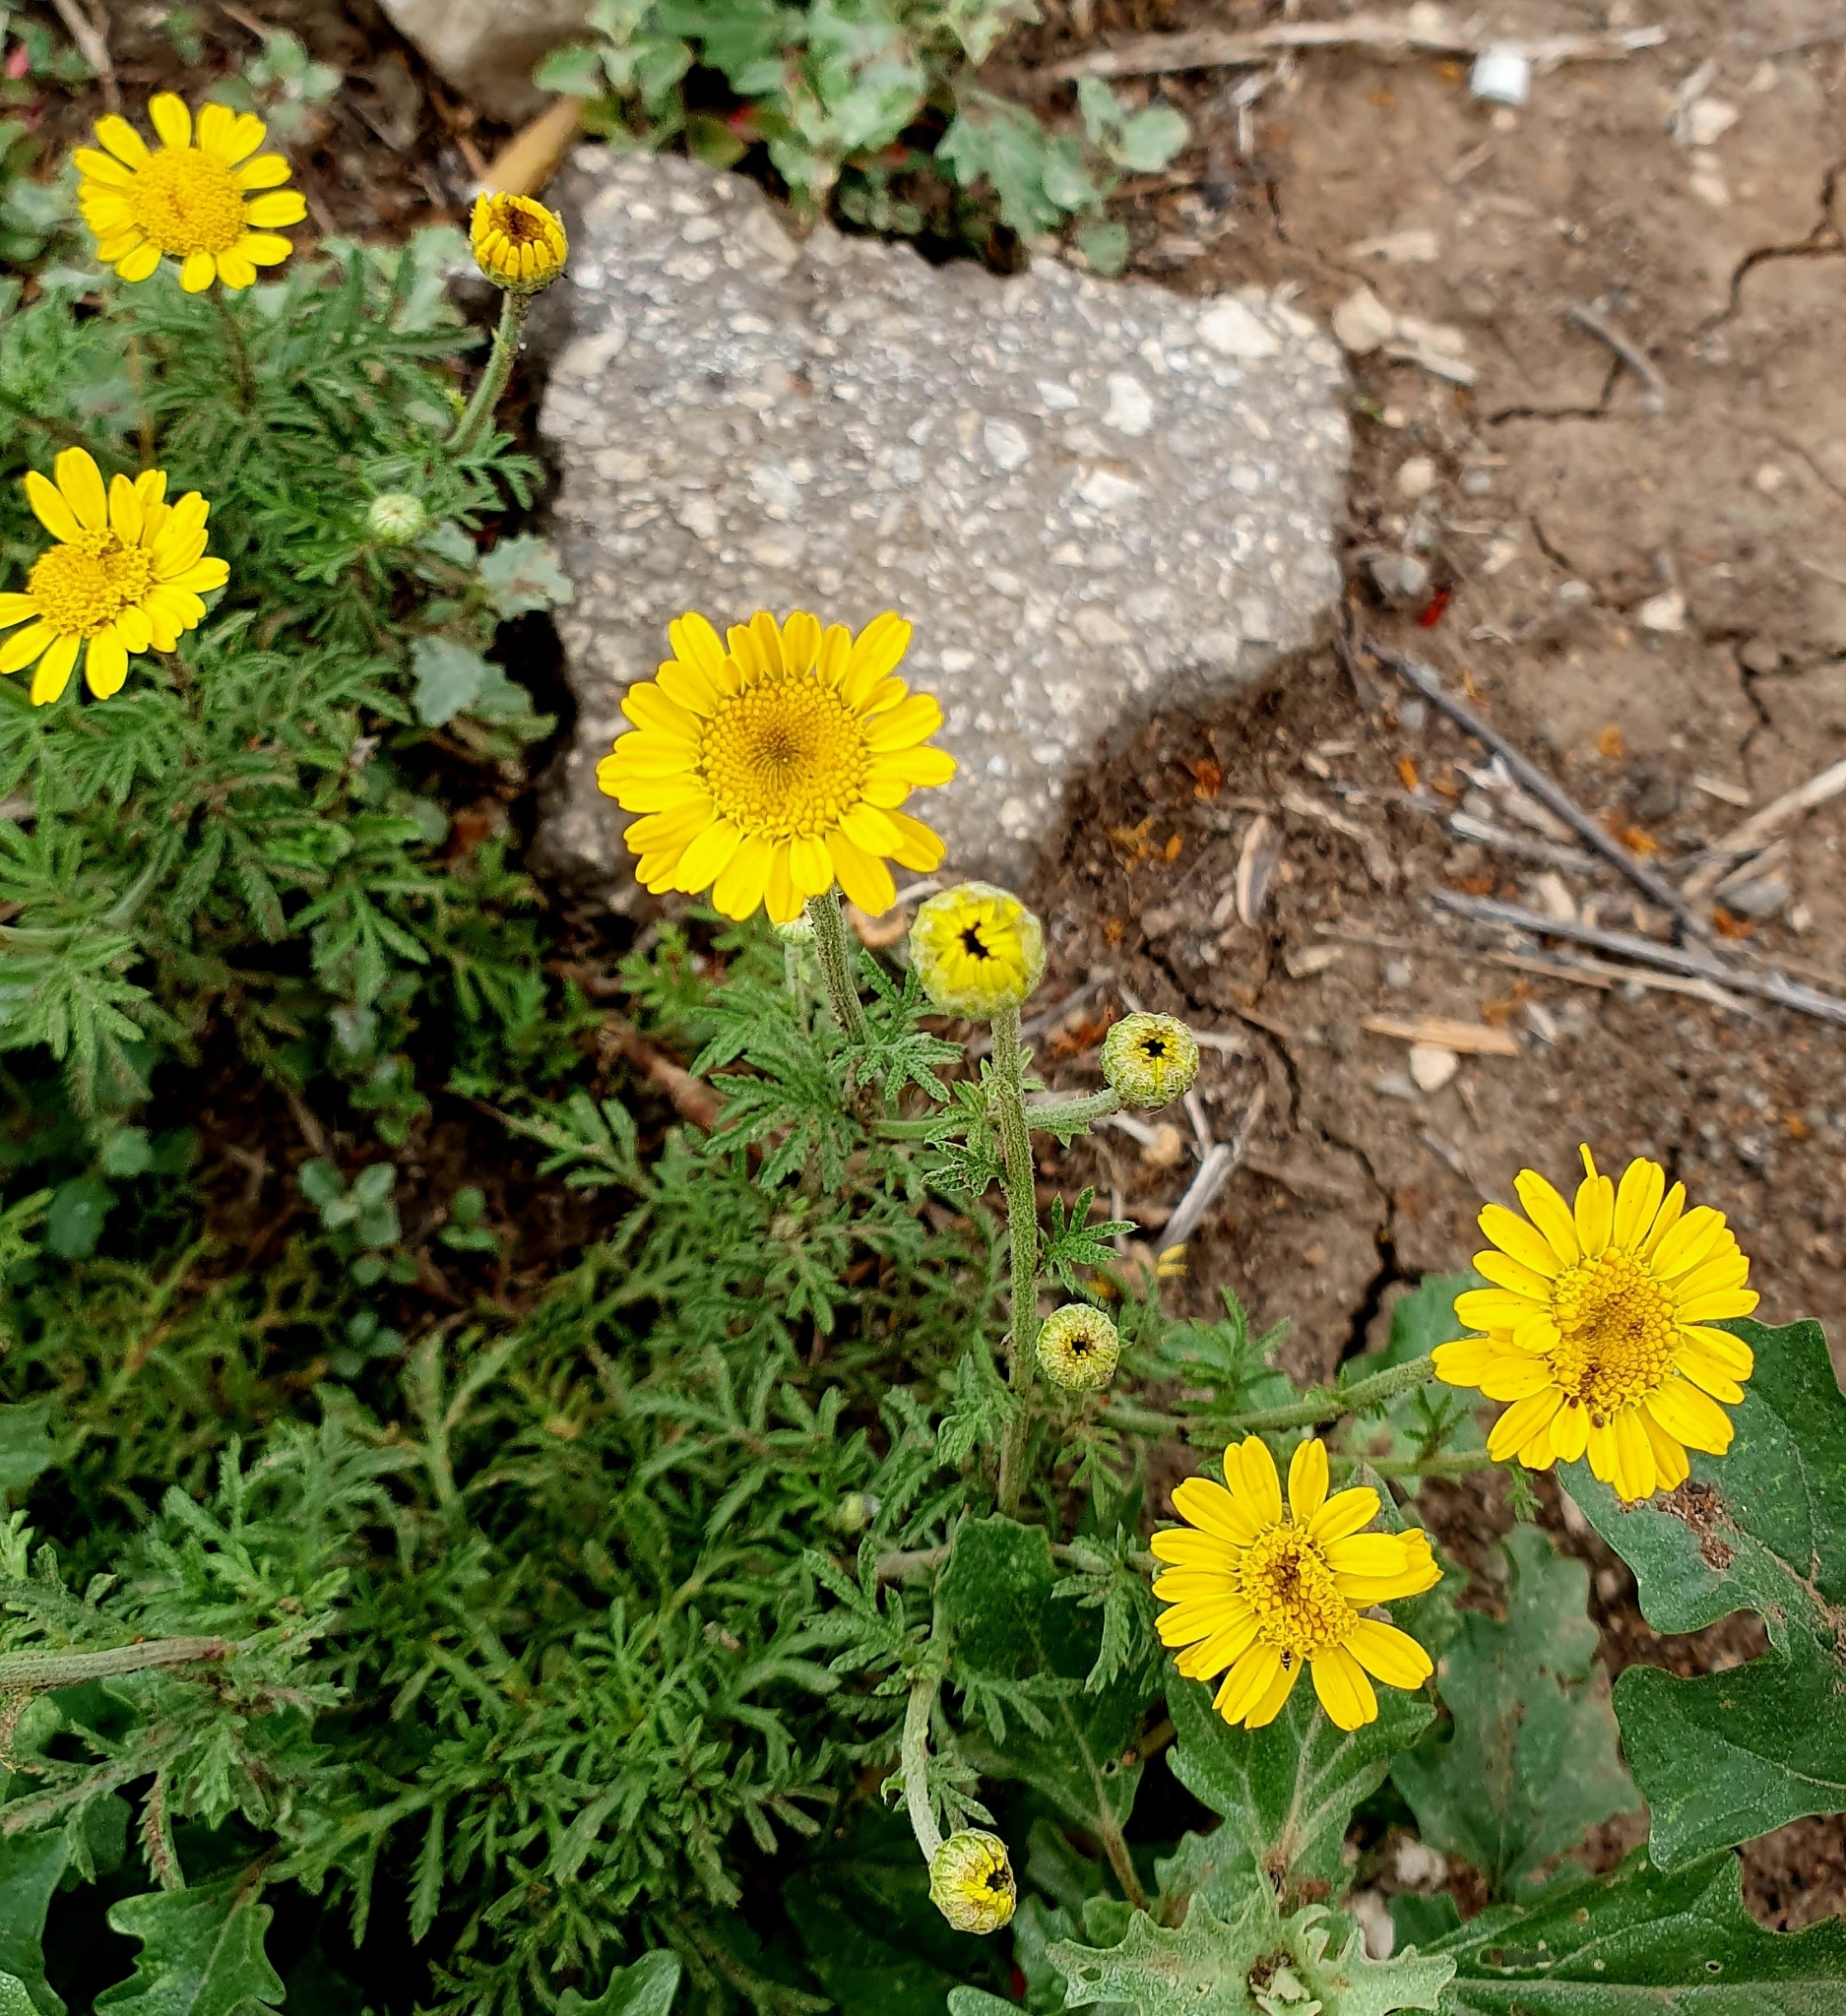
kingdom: Plantae
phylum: Tracheophyta
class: Magnoliopsida
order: Asterales
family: Asteraceae
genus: Cota
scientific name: Cota tinctoria
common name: Golden chamomile
